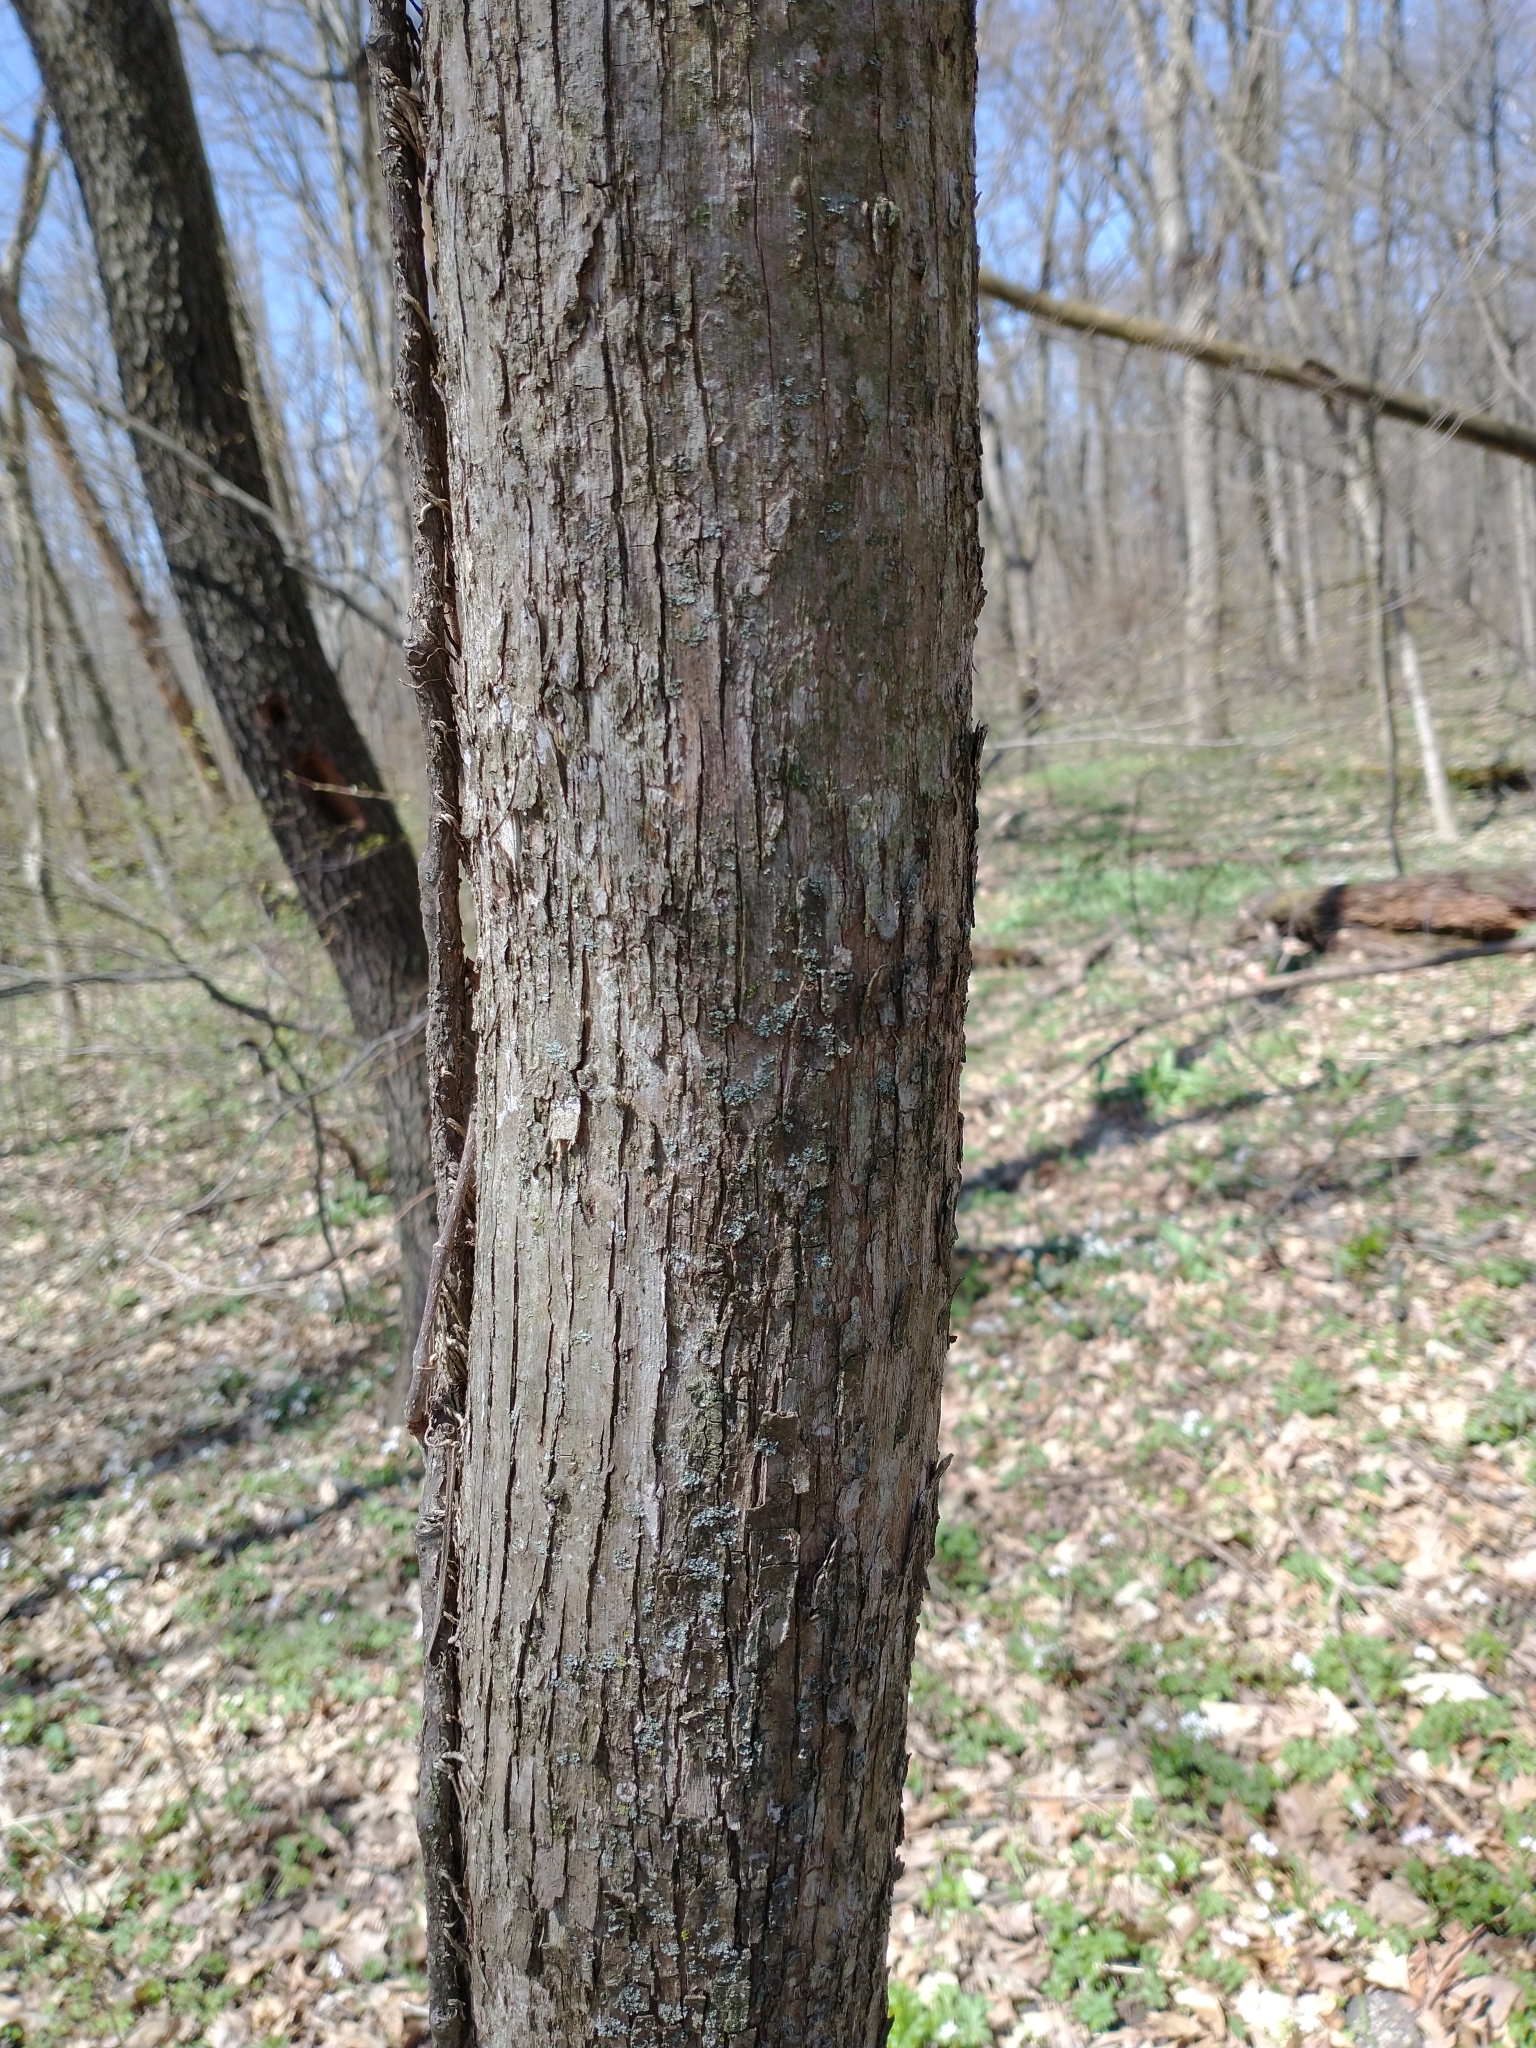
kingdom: Plantae
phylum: Tracheophyta
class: Magnoliopsida
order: Fagales
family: Betulaceae
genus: Ostrya
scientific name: Ostrya virginiana
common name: Ironwood
